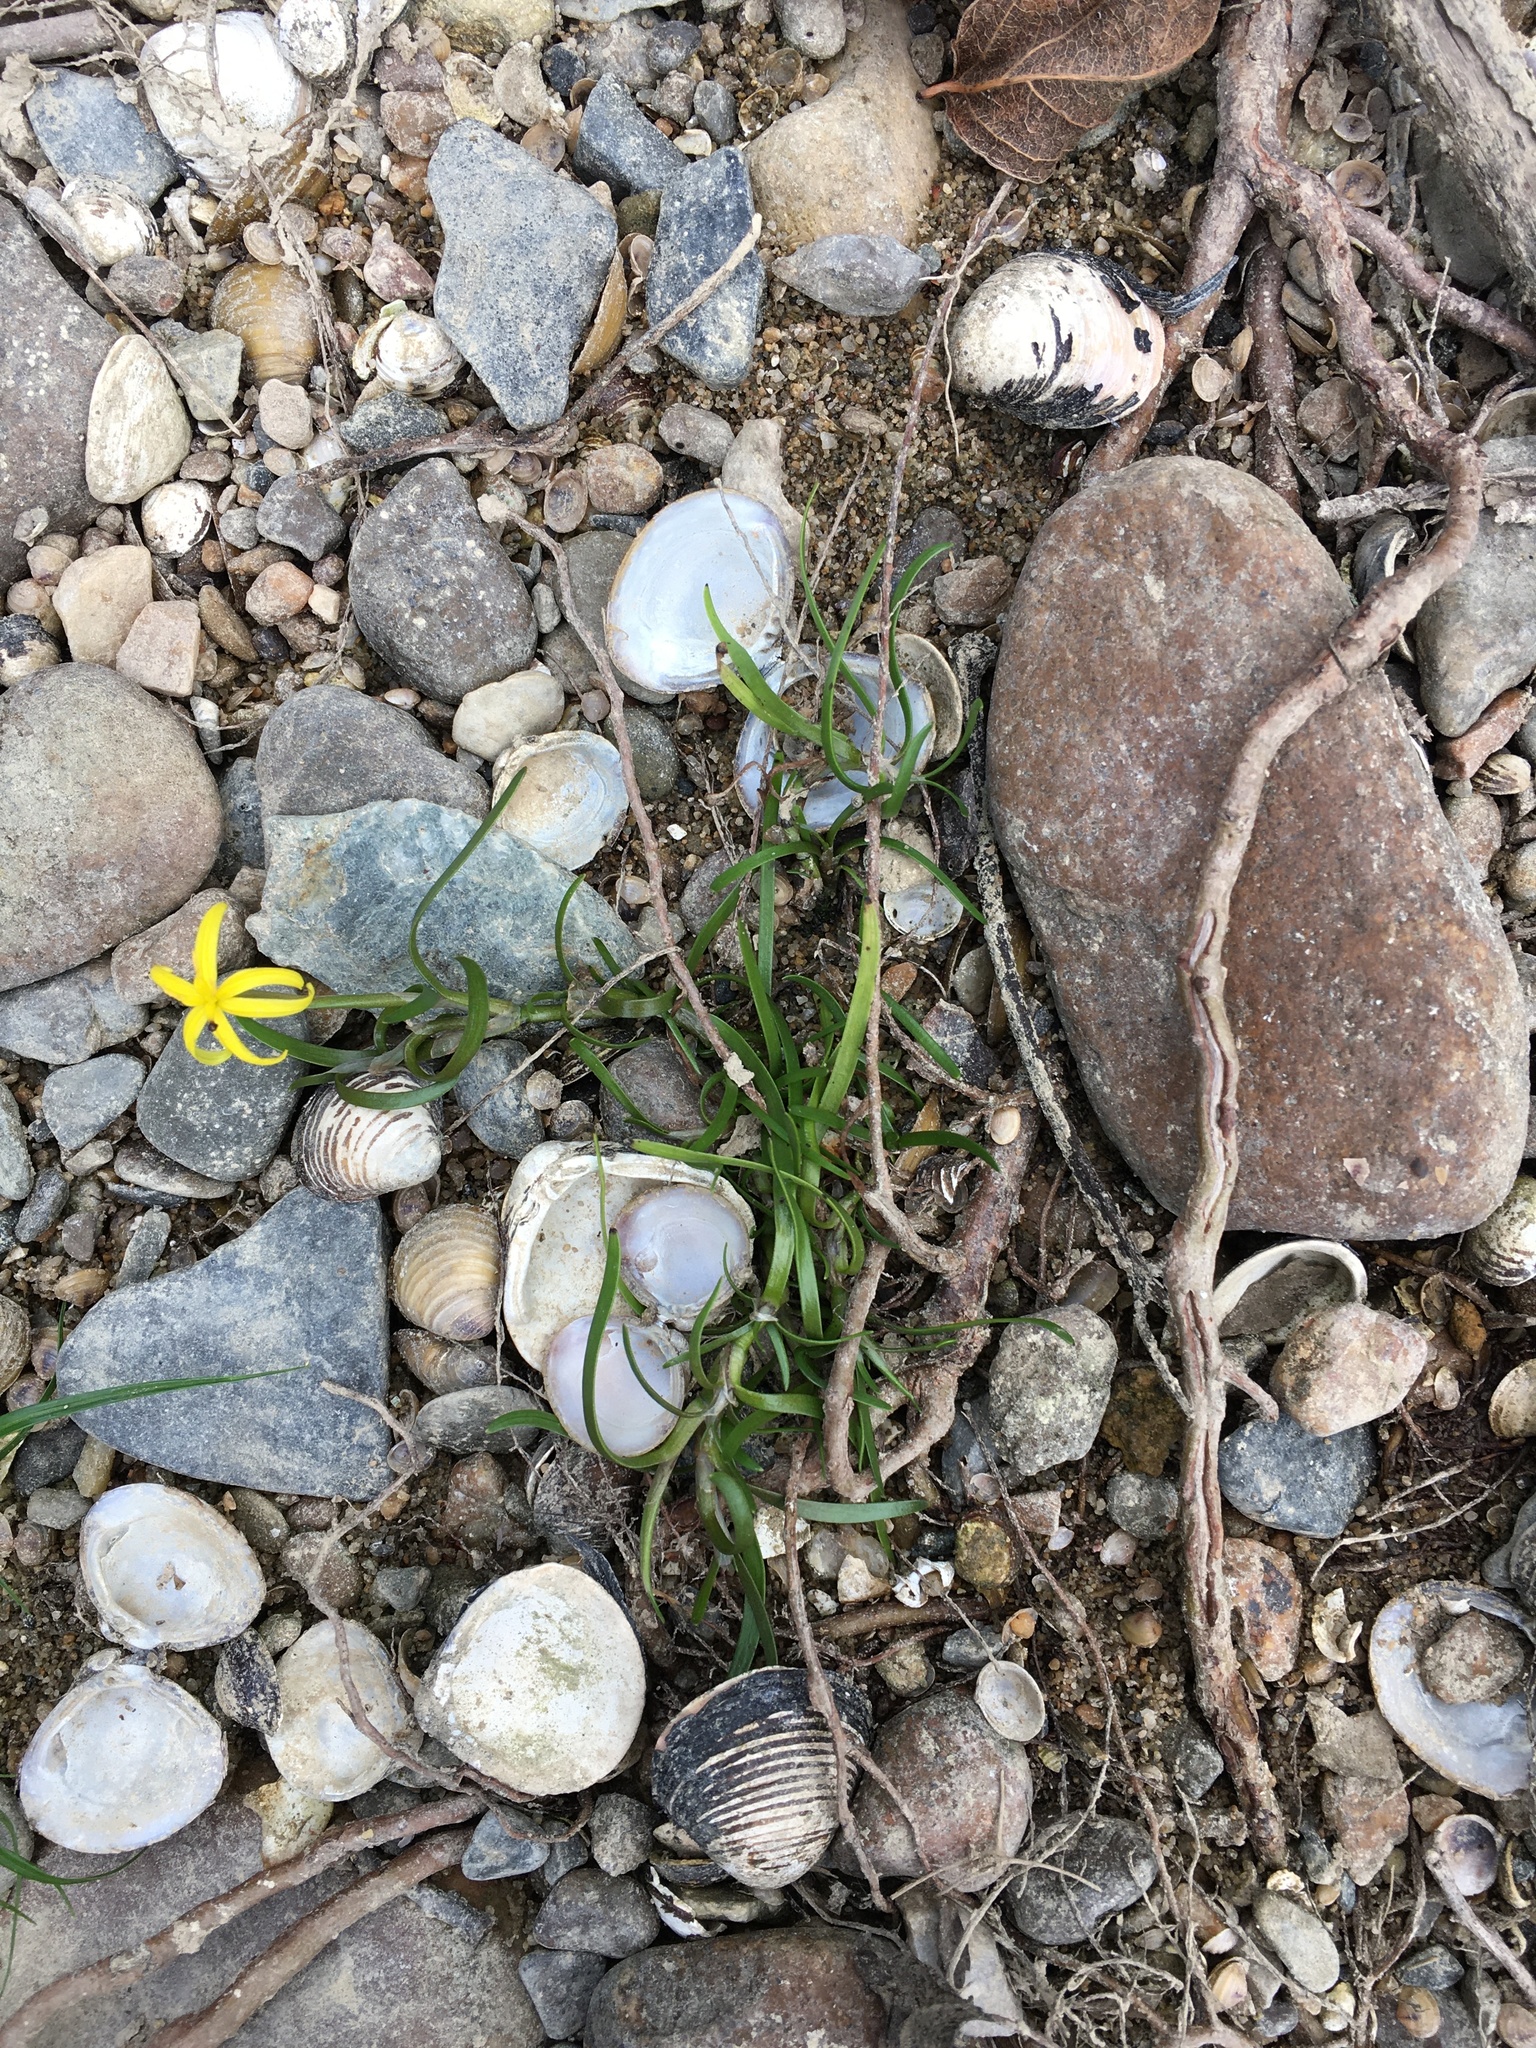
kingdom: Plantae
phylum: Tracheophyta
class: Liliopsida
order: Commelinales
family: Pontederiaceae
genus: Heteranthera
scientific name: Heteranthera dubia
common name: Grass-leaved mud plantain
